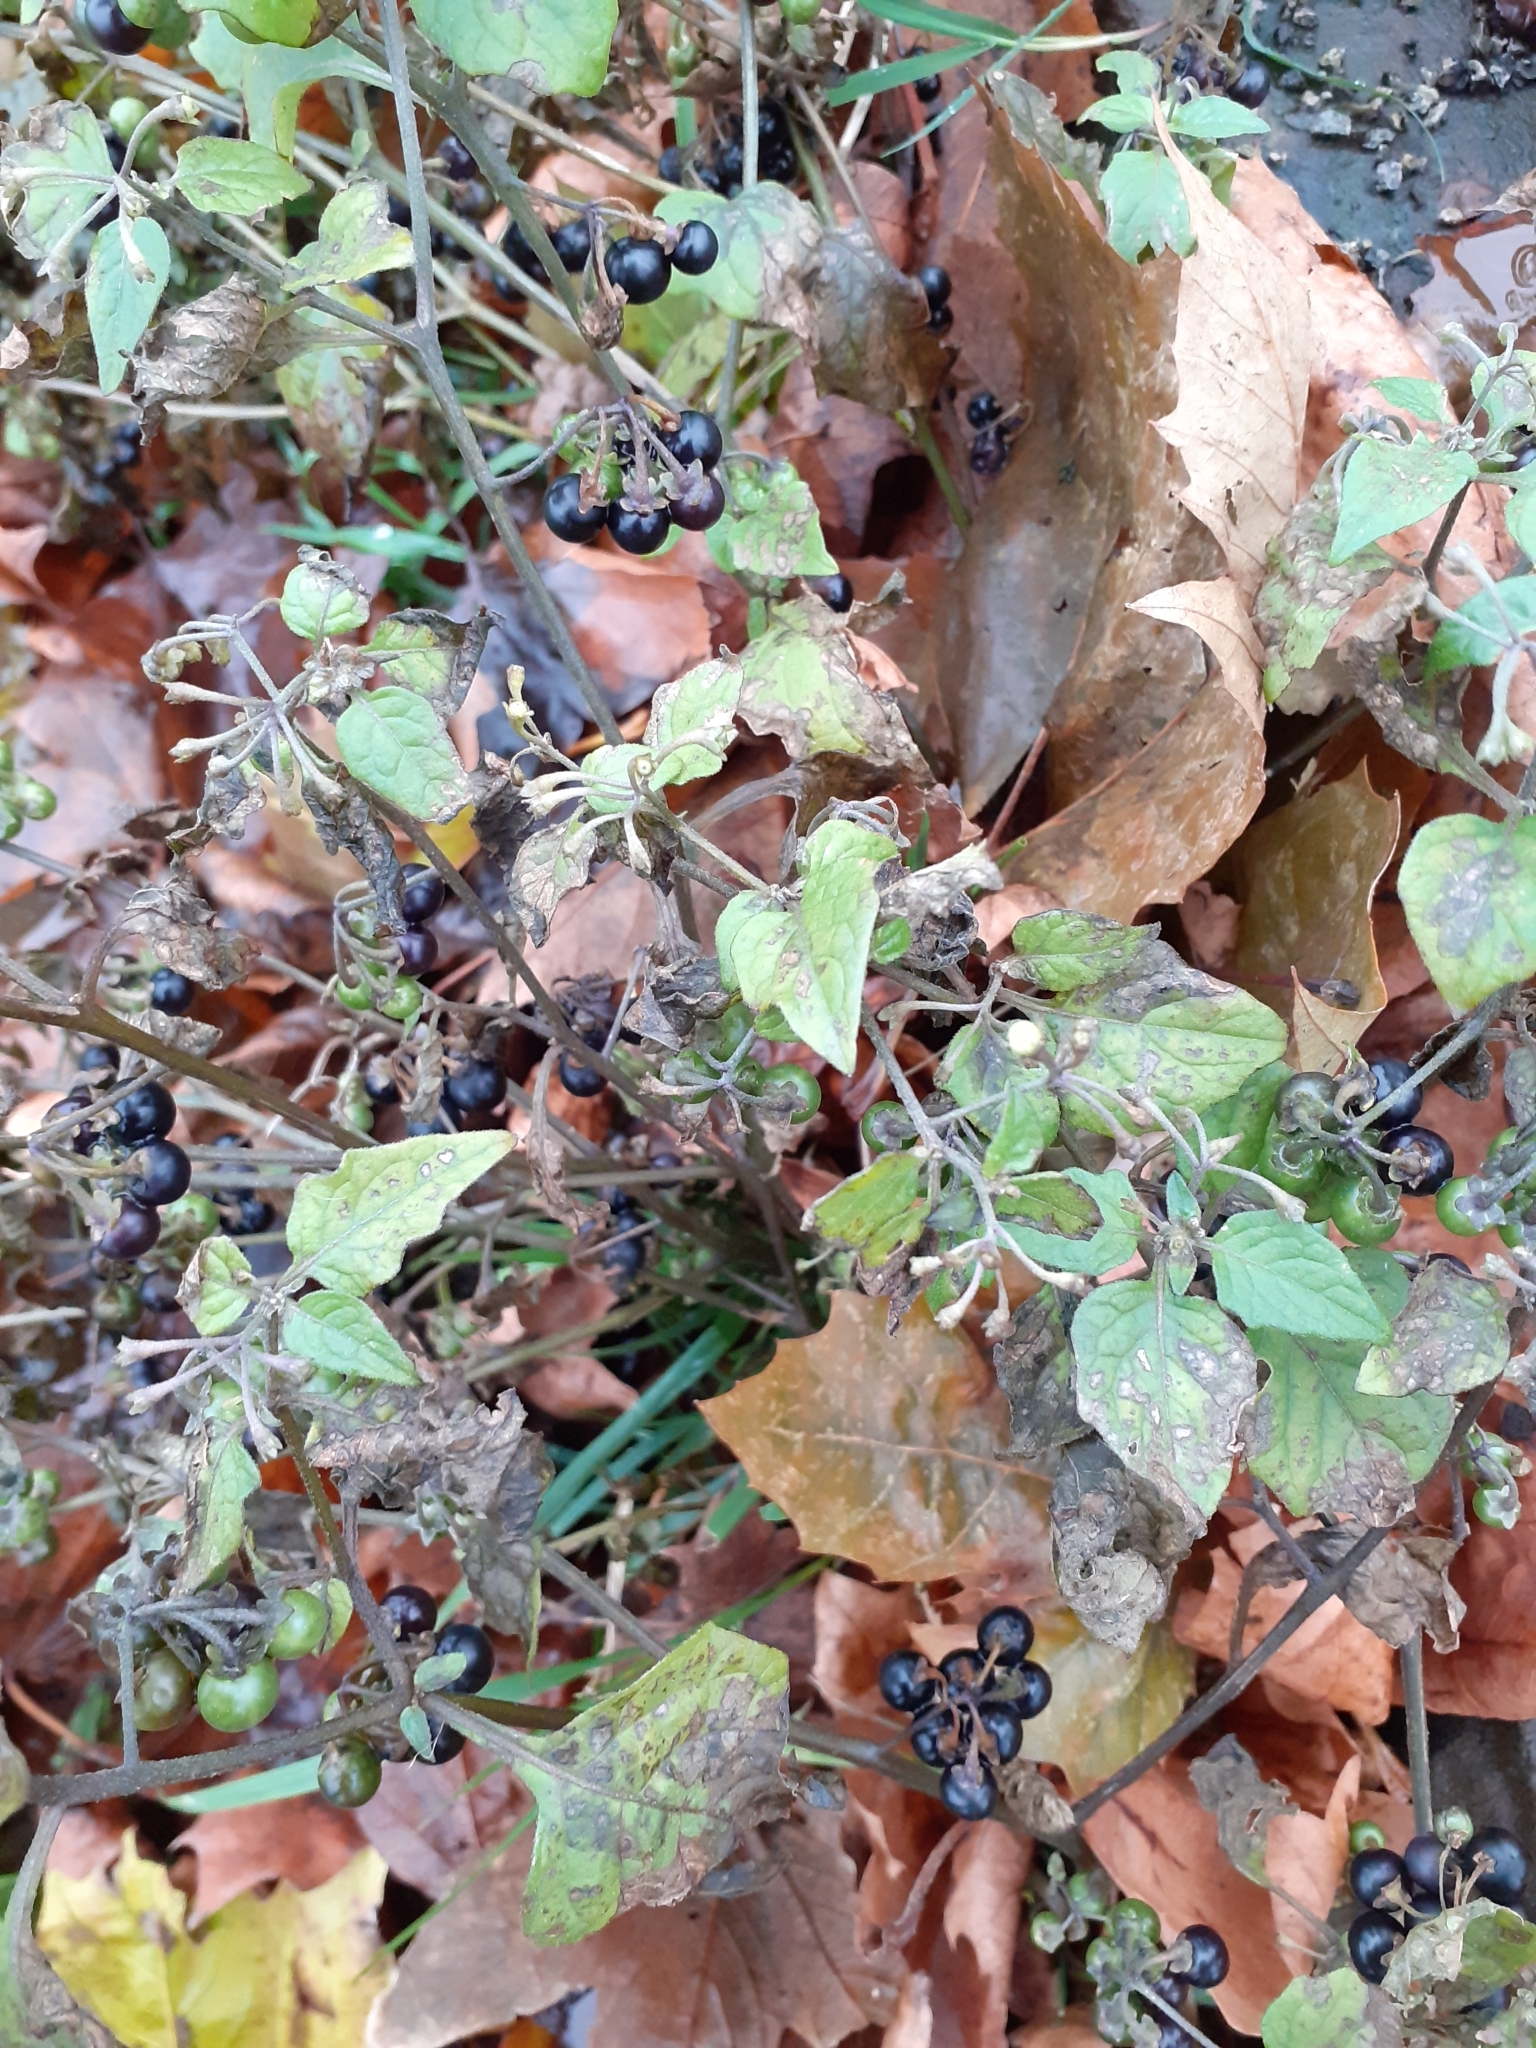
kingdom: Plantae
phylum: Tracheophyta
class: Magnoliopsida
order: Solanales
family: Solanaceae
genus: Solanum
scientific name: Solanum nigrum
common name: Black nightshade
